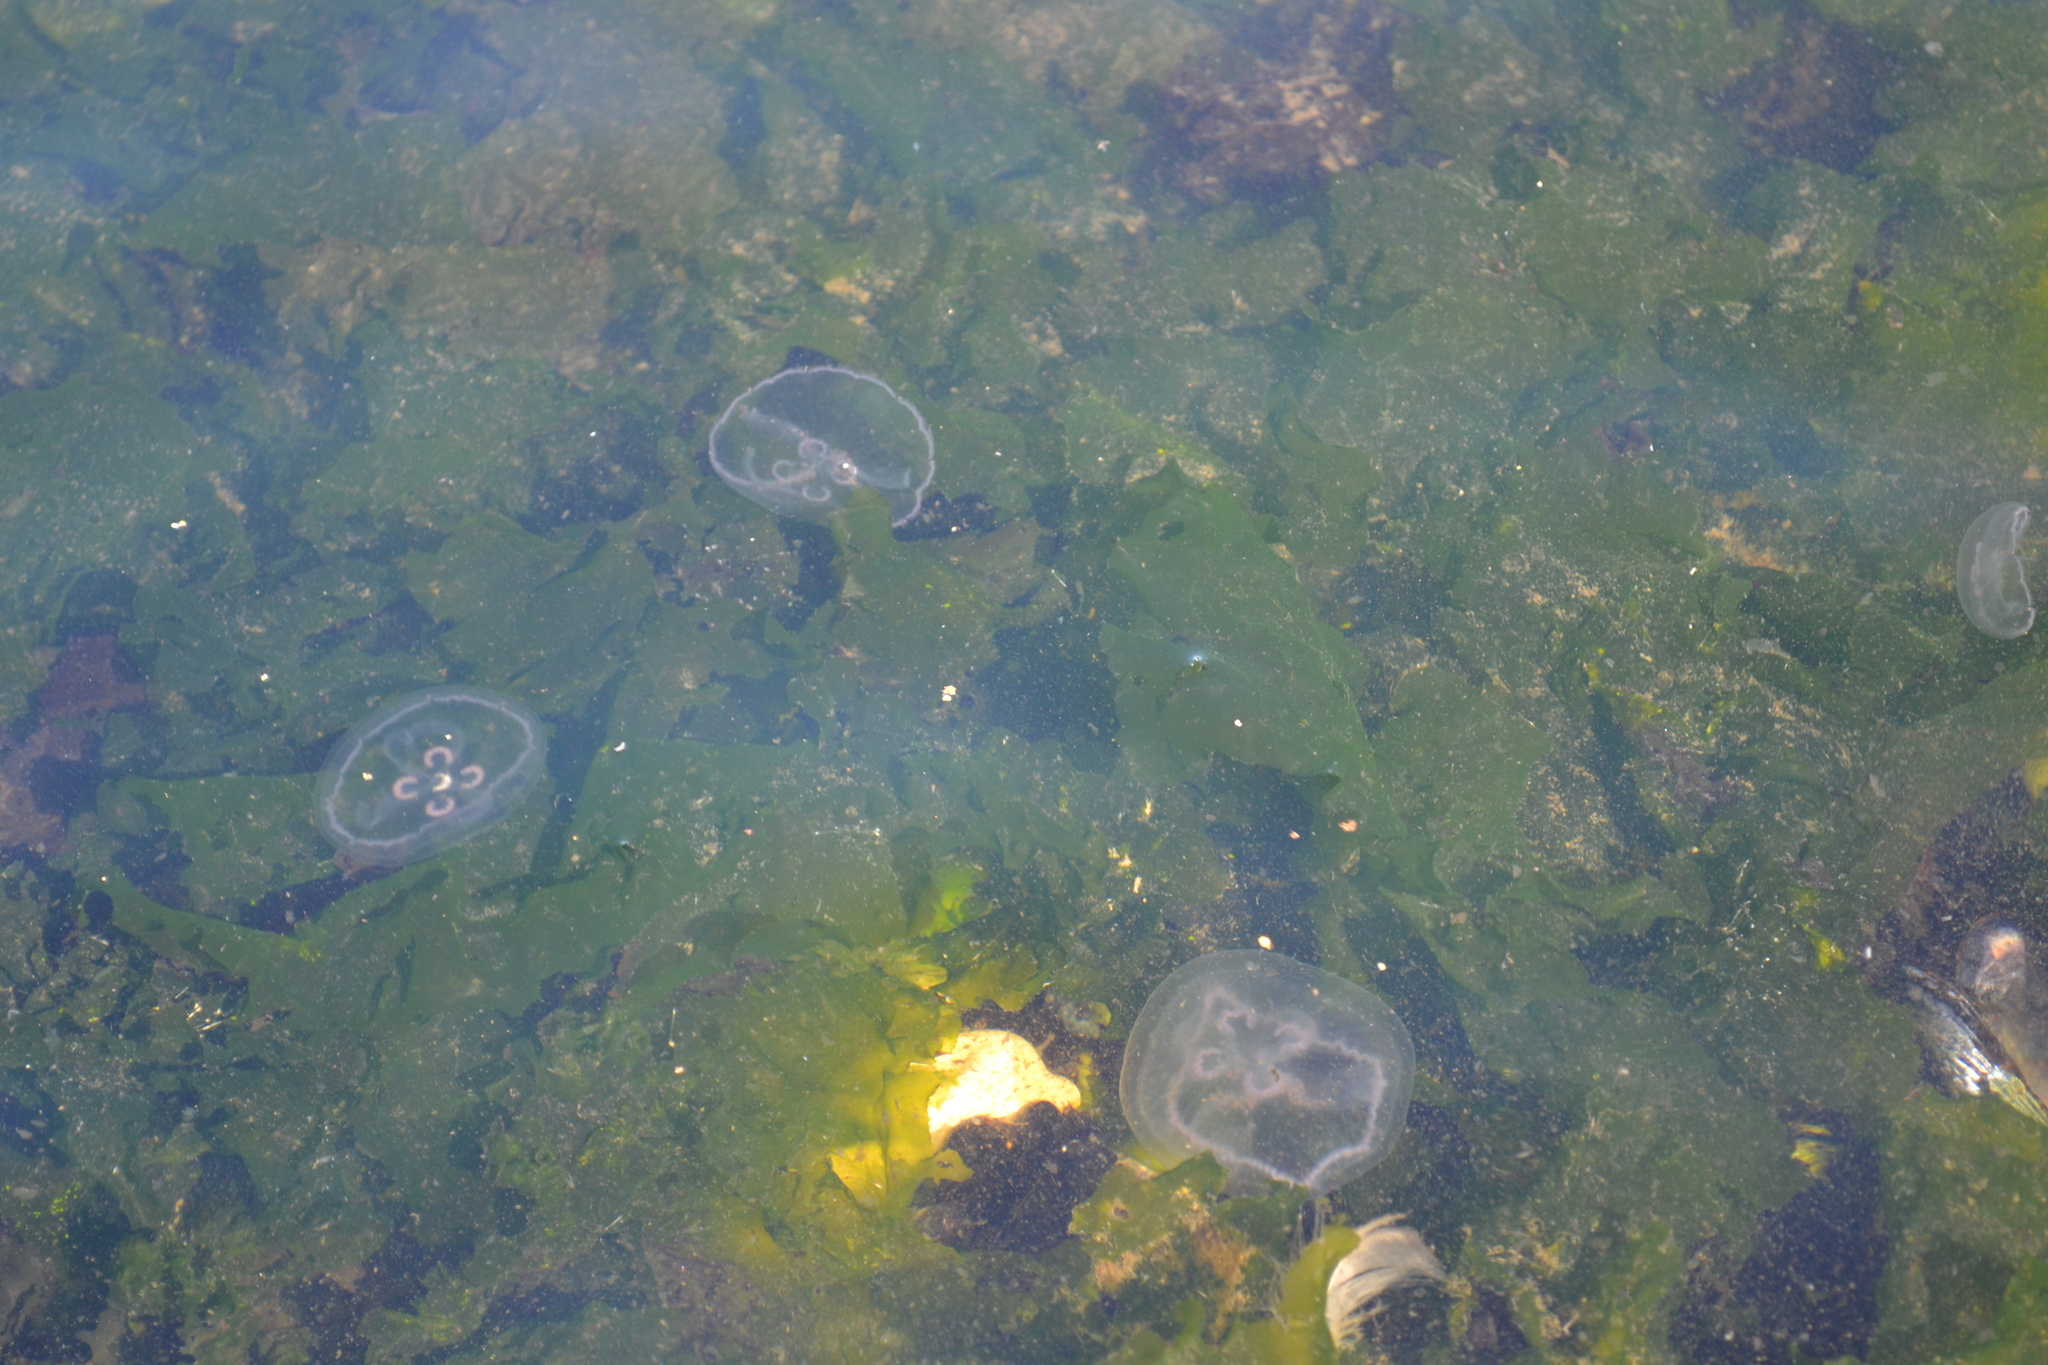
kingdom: Animalia
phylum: Cnidaria
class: Scyphozoa
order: Semaeostomeae
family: Ulmaridae
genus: Aurelia
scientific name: Aurelia aurita
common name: Moon jellyfish
